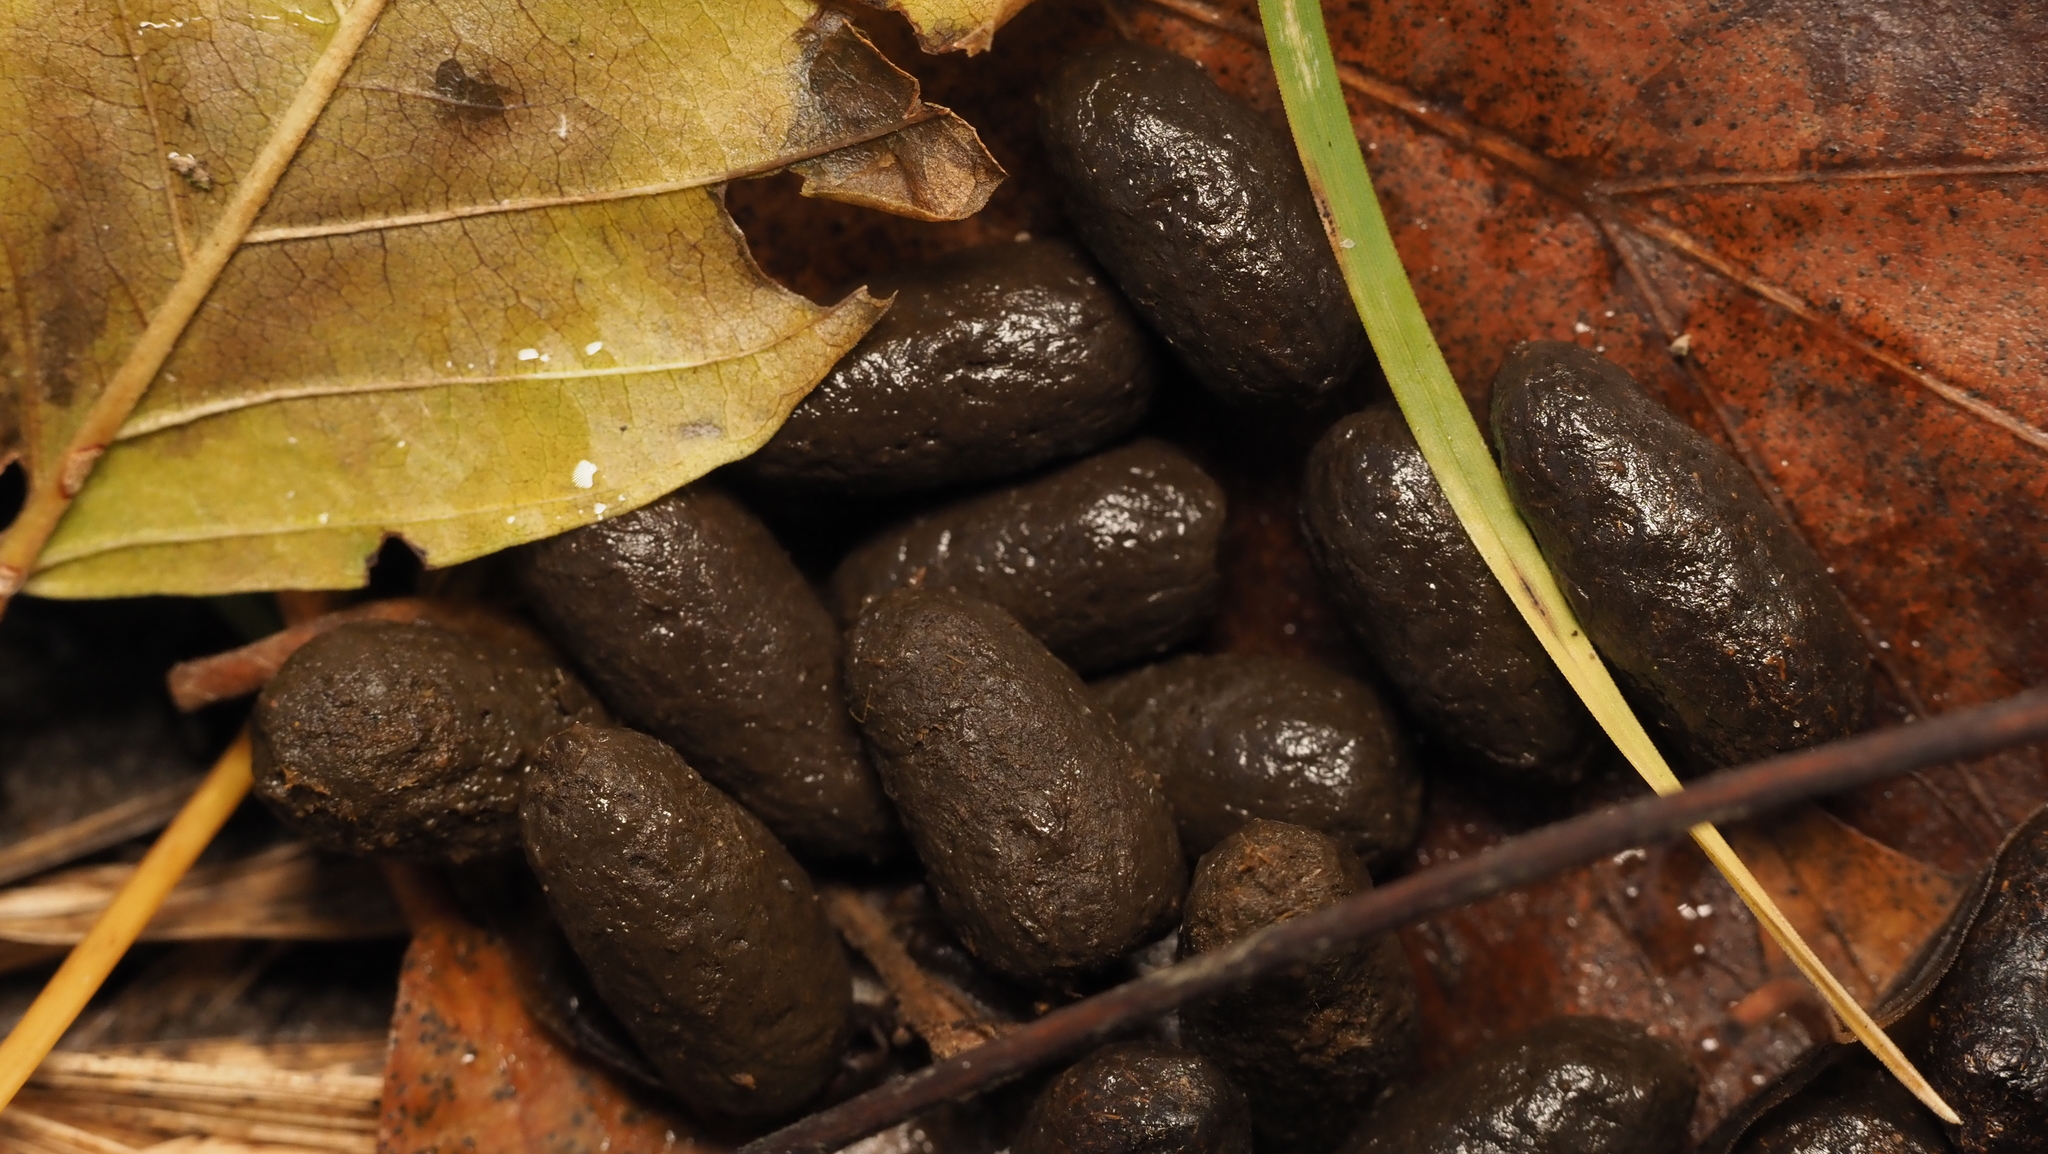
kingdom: Animalia
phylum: Chordata
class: Mammalia
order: Artiodactyla
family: Cervidae
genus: Odocoileus
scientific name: Odocoileus virginianus
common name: White-tailed deer
